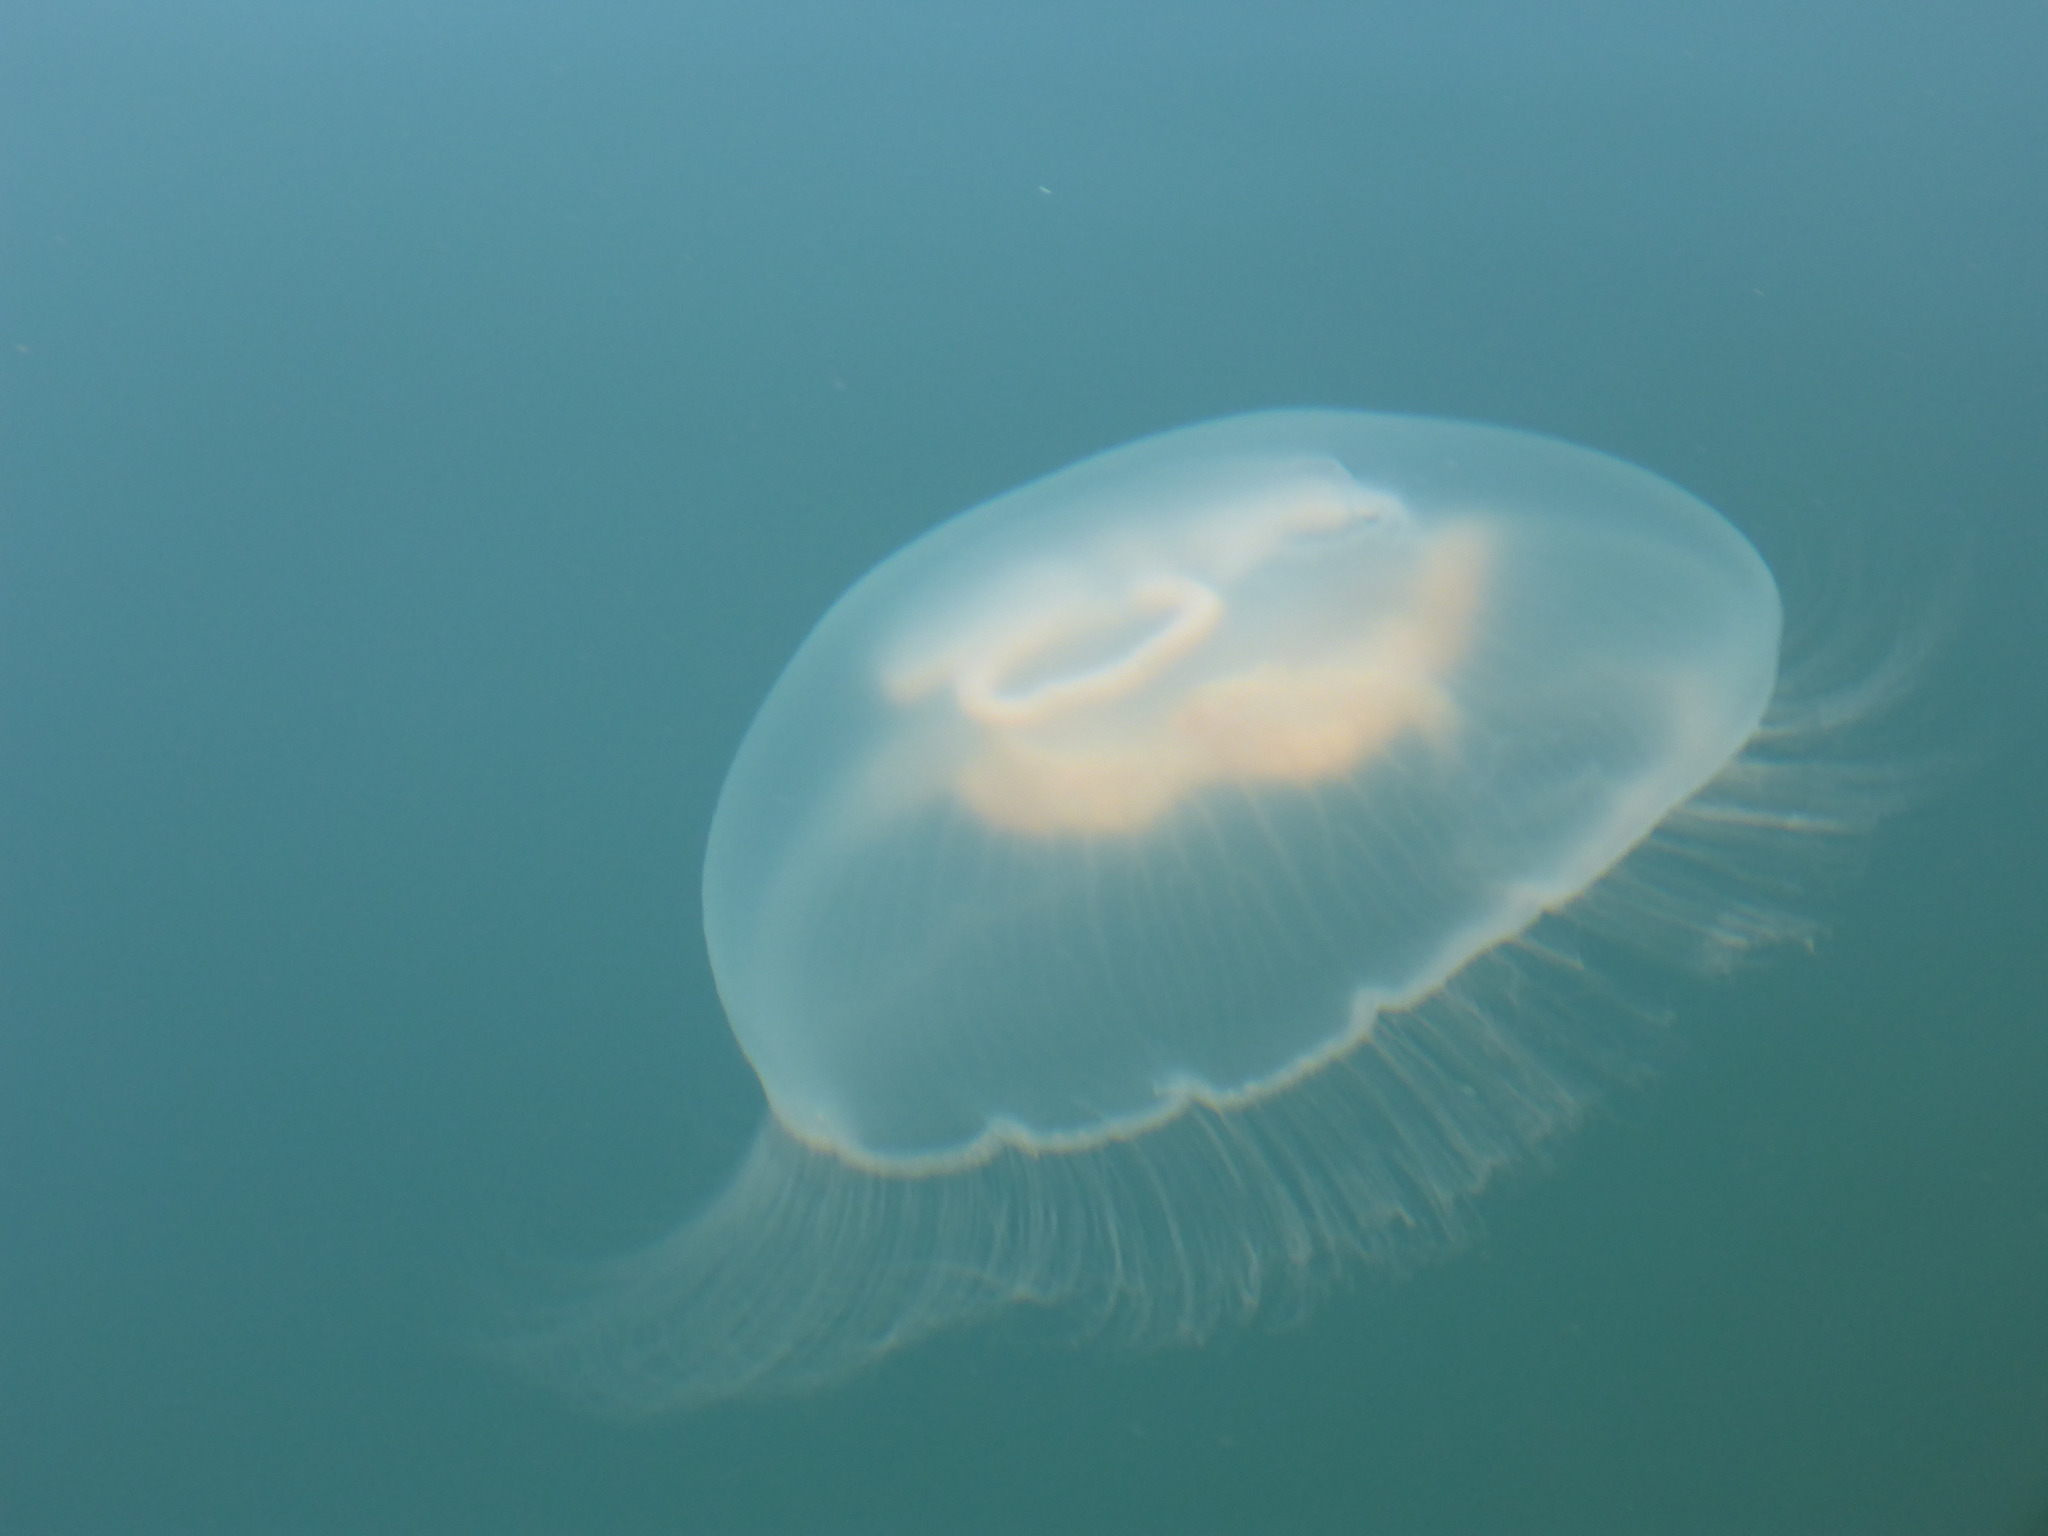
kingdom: Animalia
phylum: Cnidaria
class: Scyphozoa
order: Semaeostomeae
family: Ulmaridae
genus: Aurelia
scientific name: Aurelia aurita
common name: Moon jellyfish
